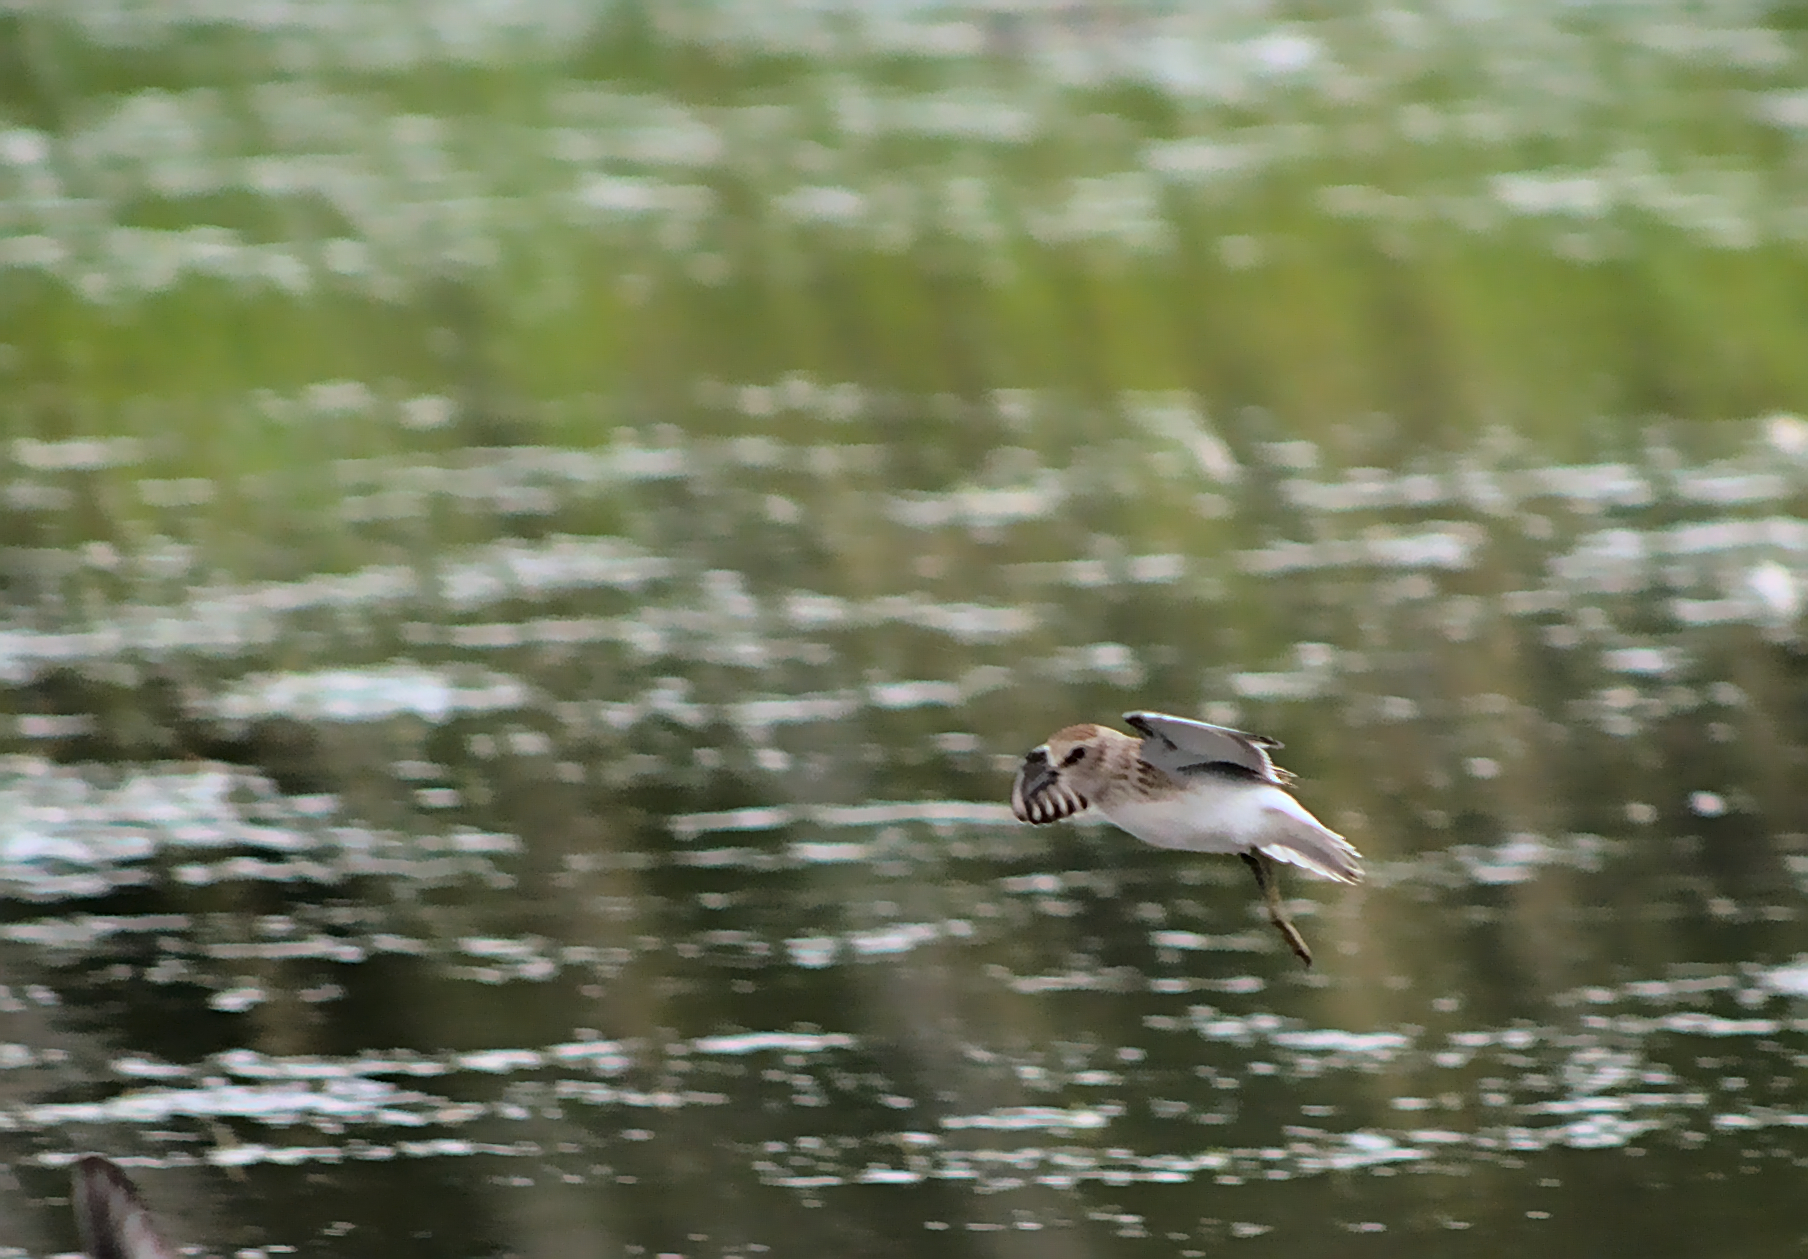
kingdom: Animalia
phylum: Chordata
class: Aves
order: Charadriiformes
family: Scolopacidae
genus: Calidris
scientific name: Calidris minutilla
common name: Least sandpiper
